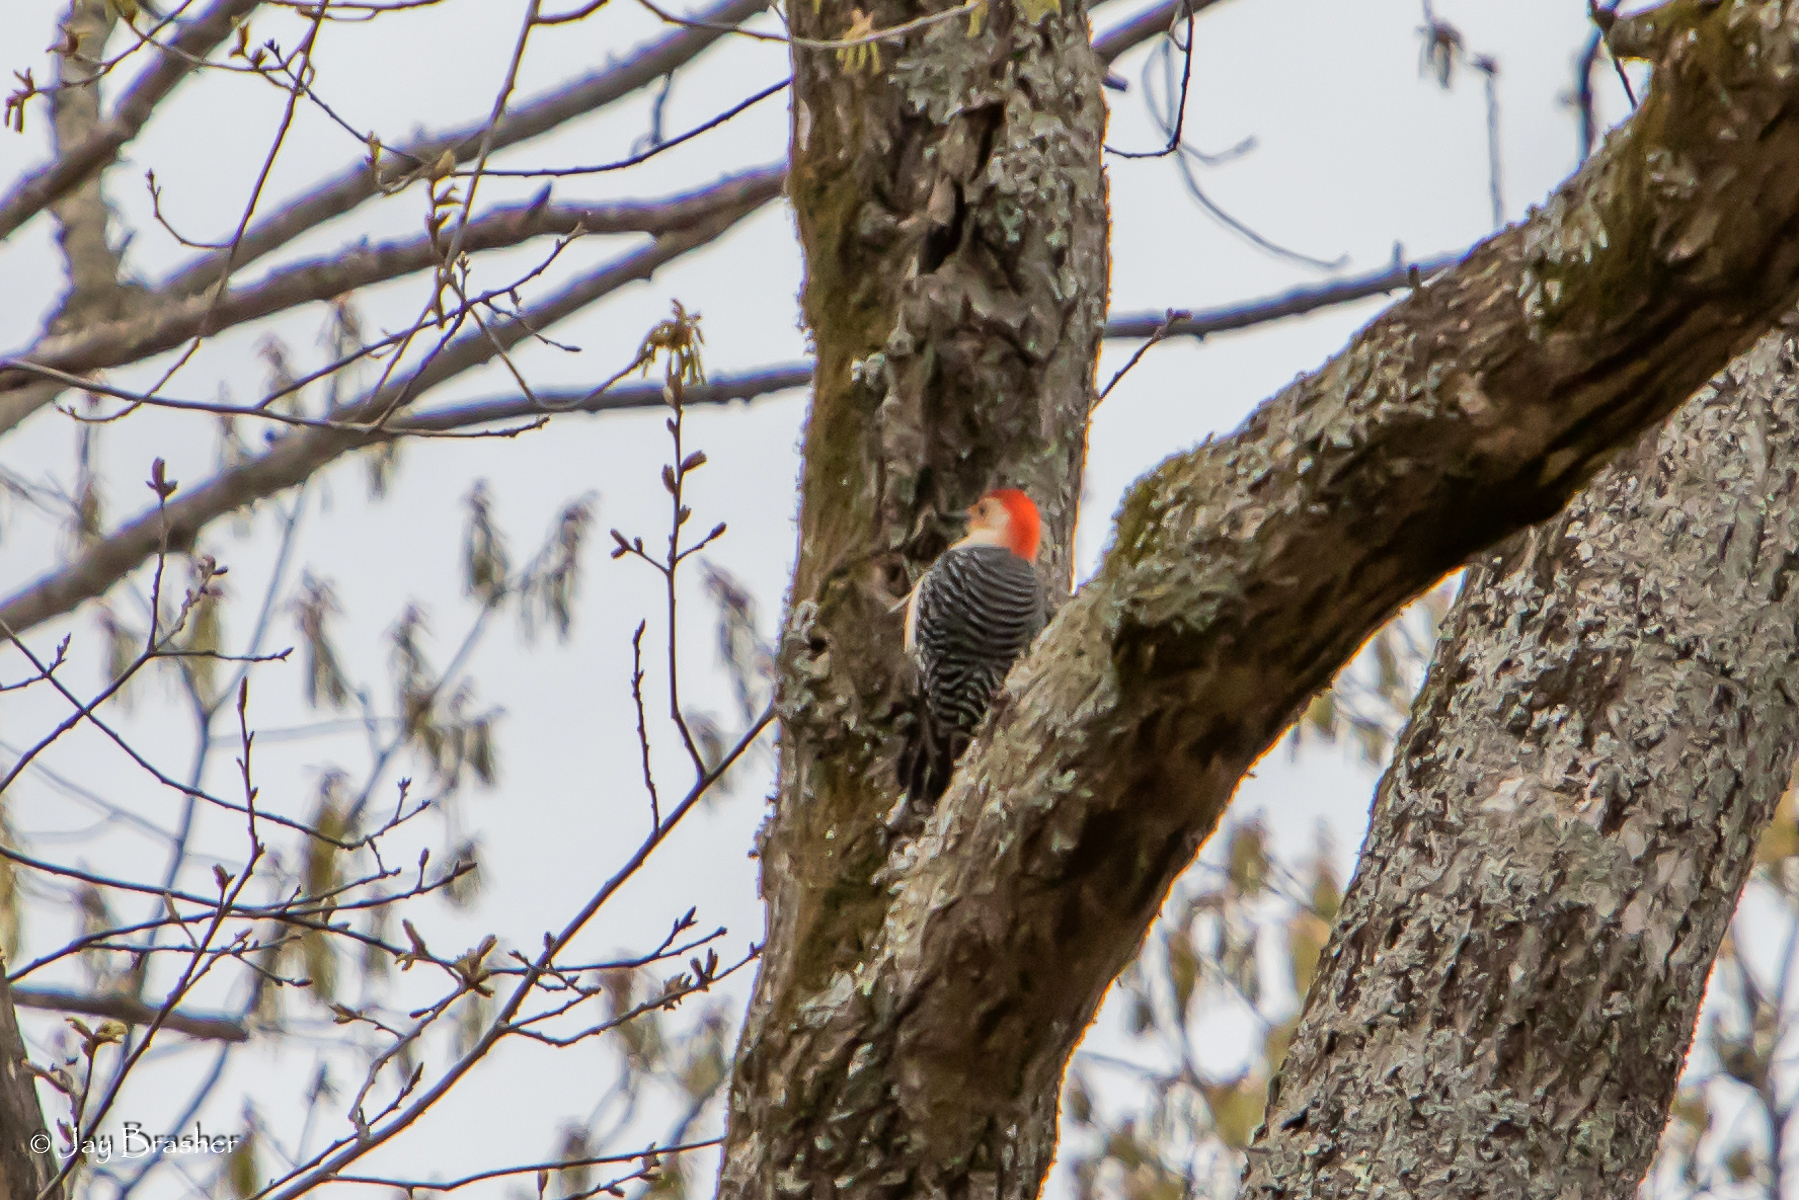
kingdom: Animalia
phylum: Chordata
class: Aves
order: Piciformes
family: Picidae
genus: Melanerpes
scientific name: Melanerpes carolinus
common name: Red-bellied woodpecker
